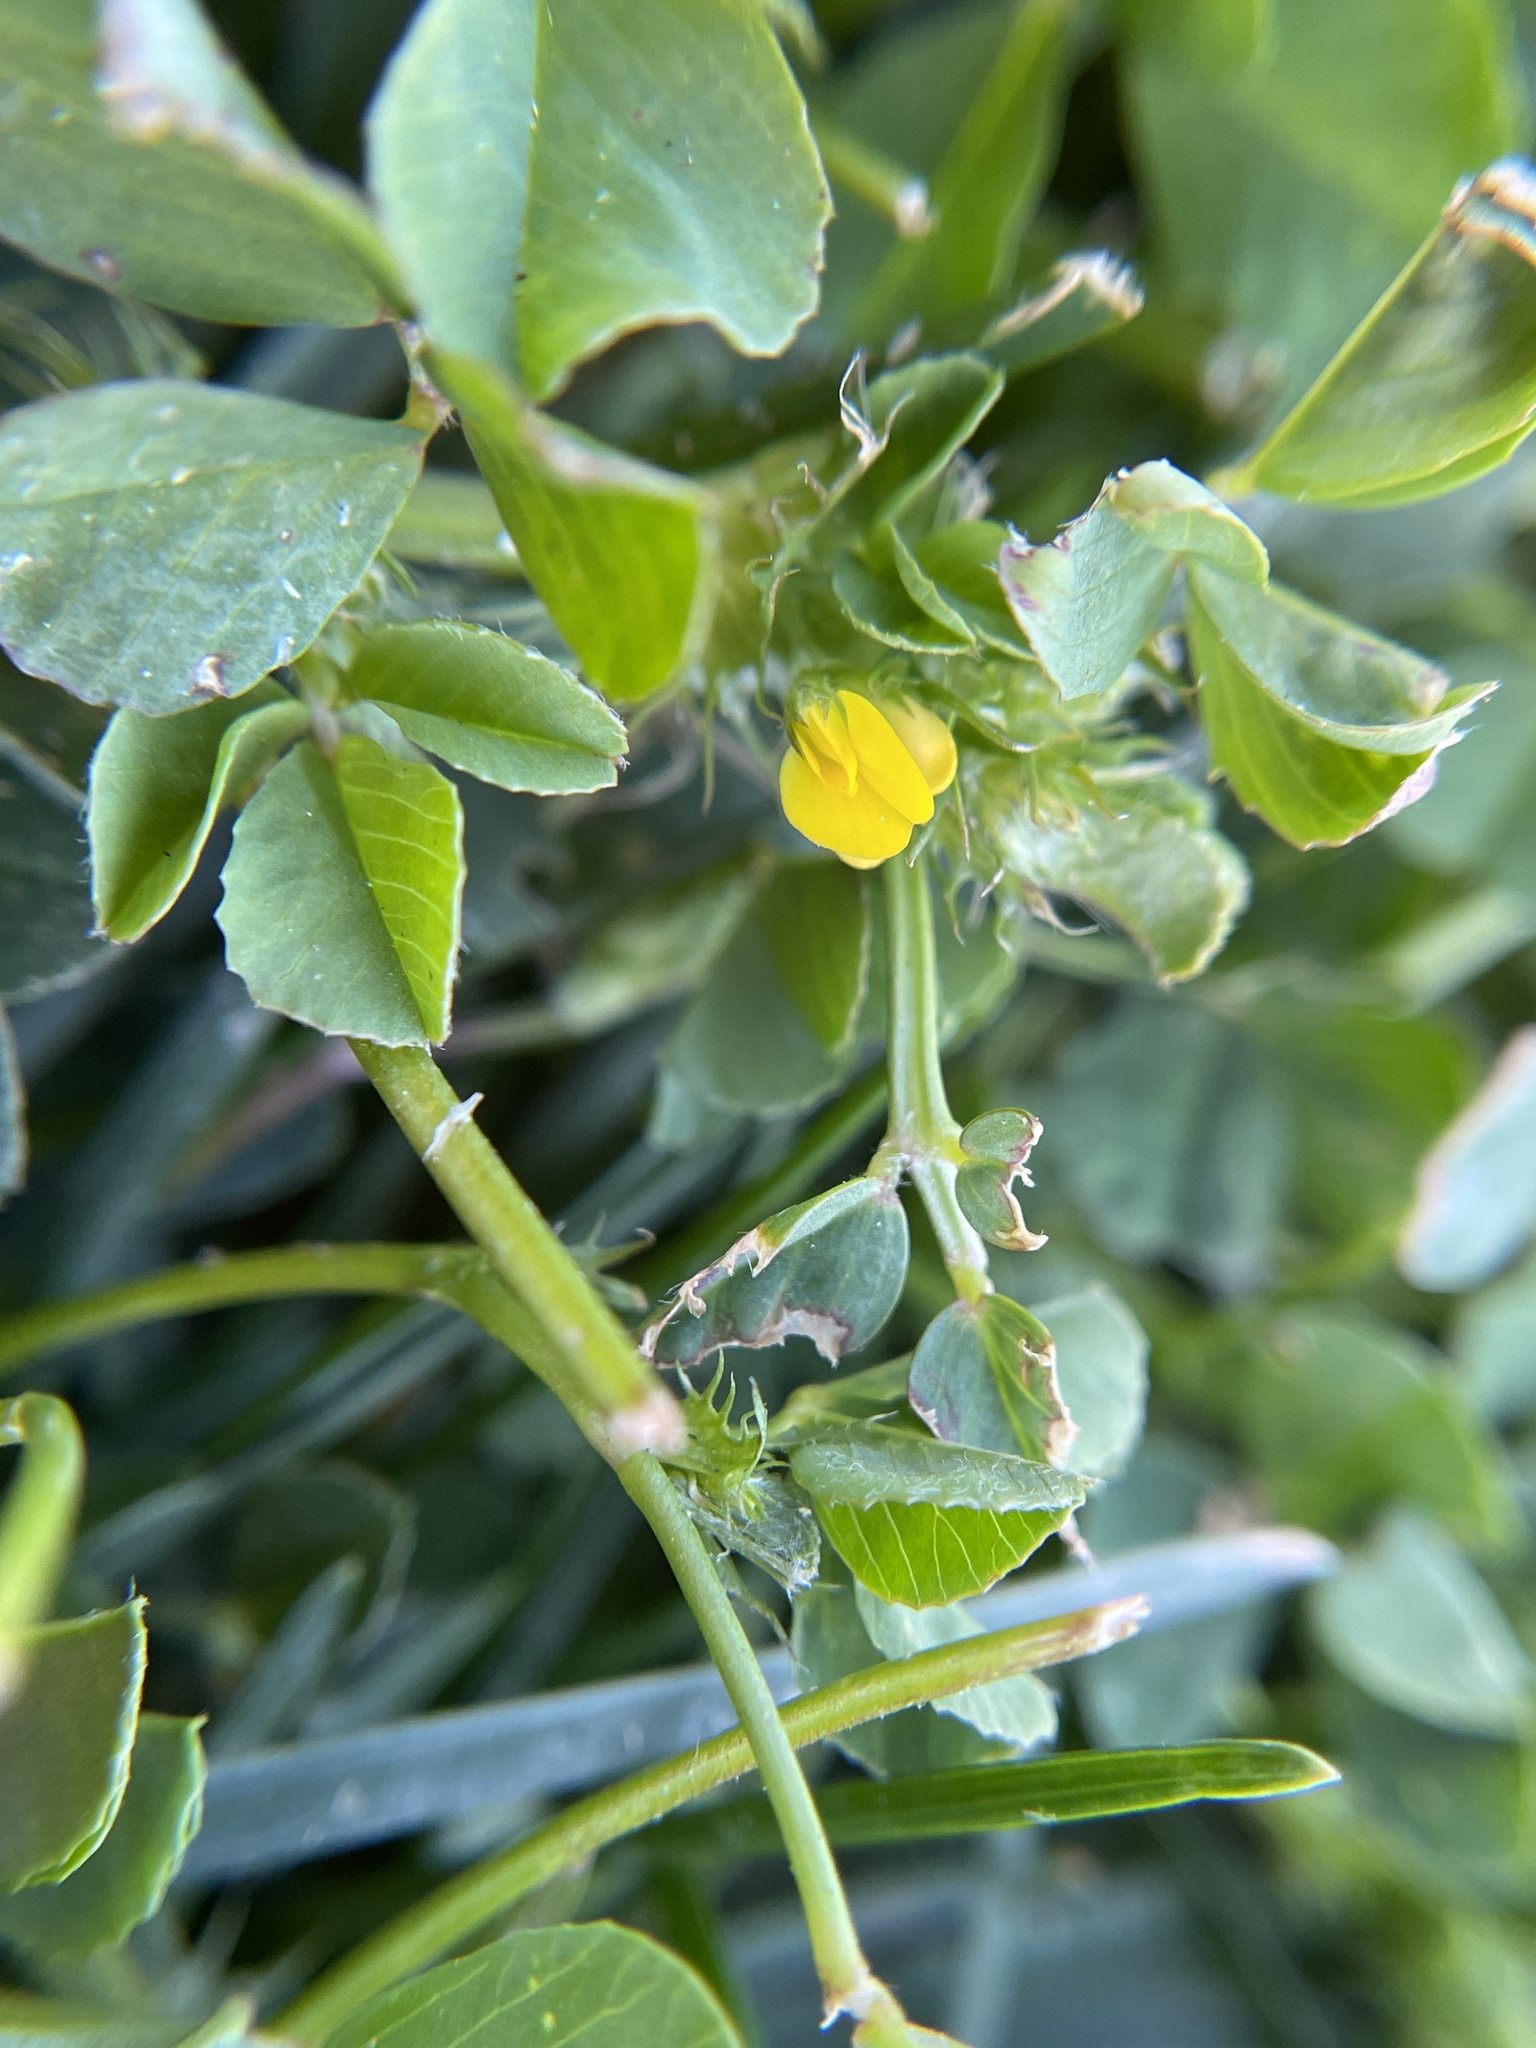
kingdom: Plantae
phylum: Tracheophyta
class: Magnoliopsida
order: Fabales
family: Fabaceae
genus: Medicago
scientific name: Medicago polymorpha
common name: Burclover
